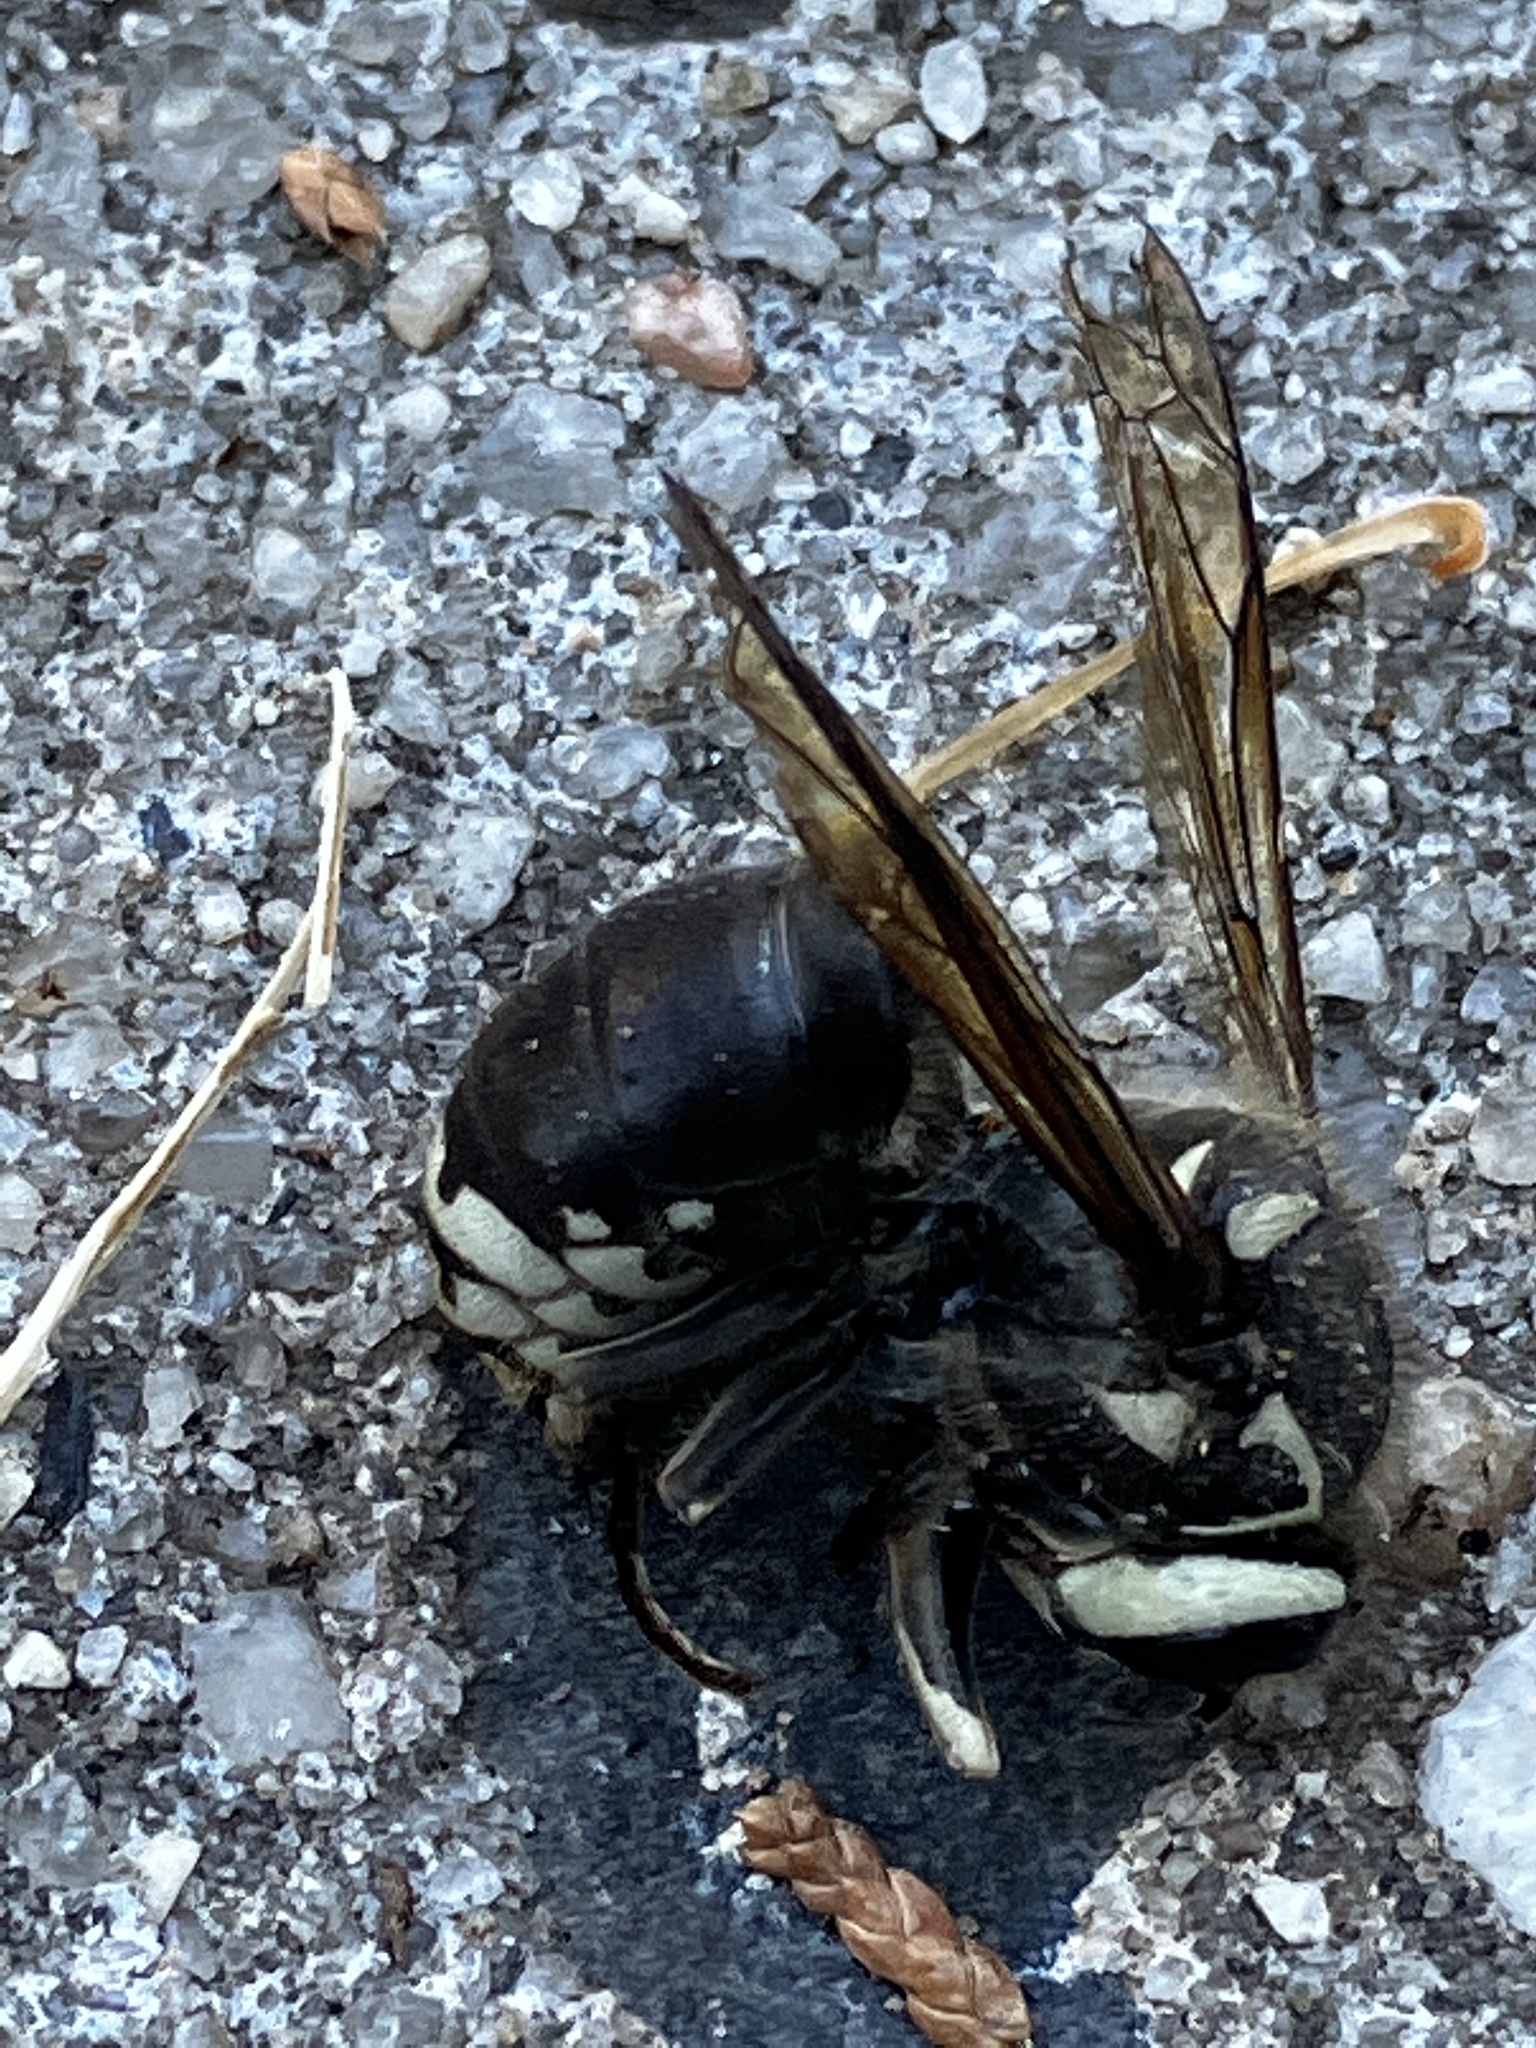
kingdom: Animalia
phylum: Arthropoda
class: Insecta
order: Hymenoptera
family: Vespidae
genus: Dolichovespula
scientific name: Dolichovespula maculata
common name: Bald-faced hornet
